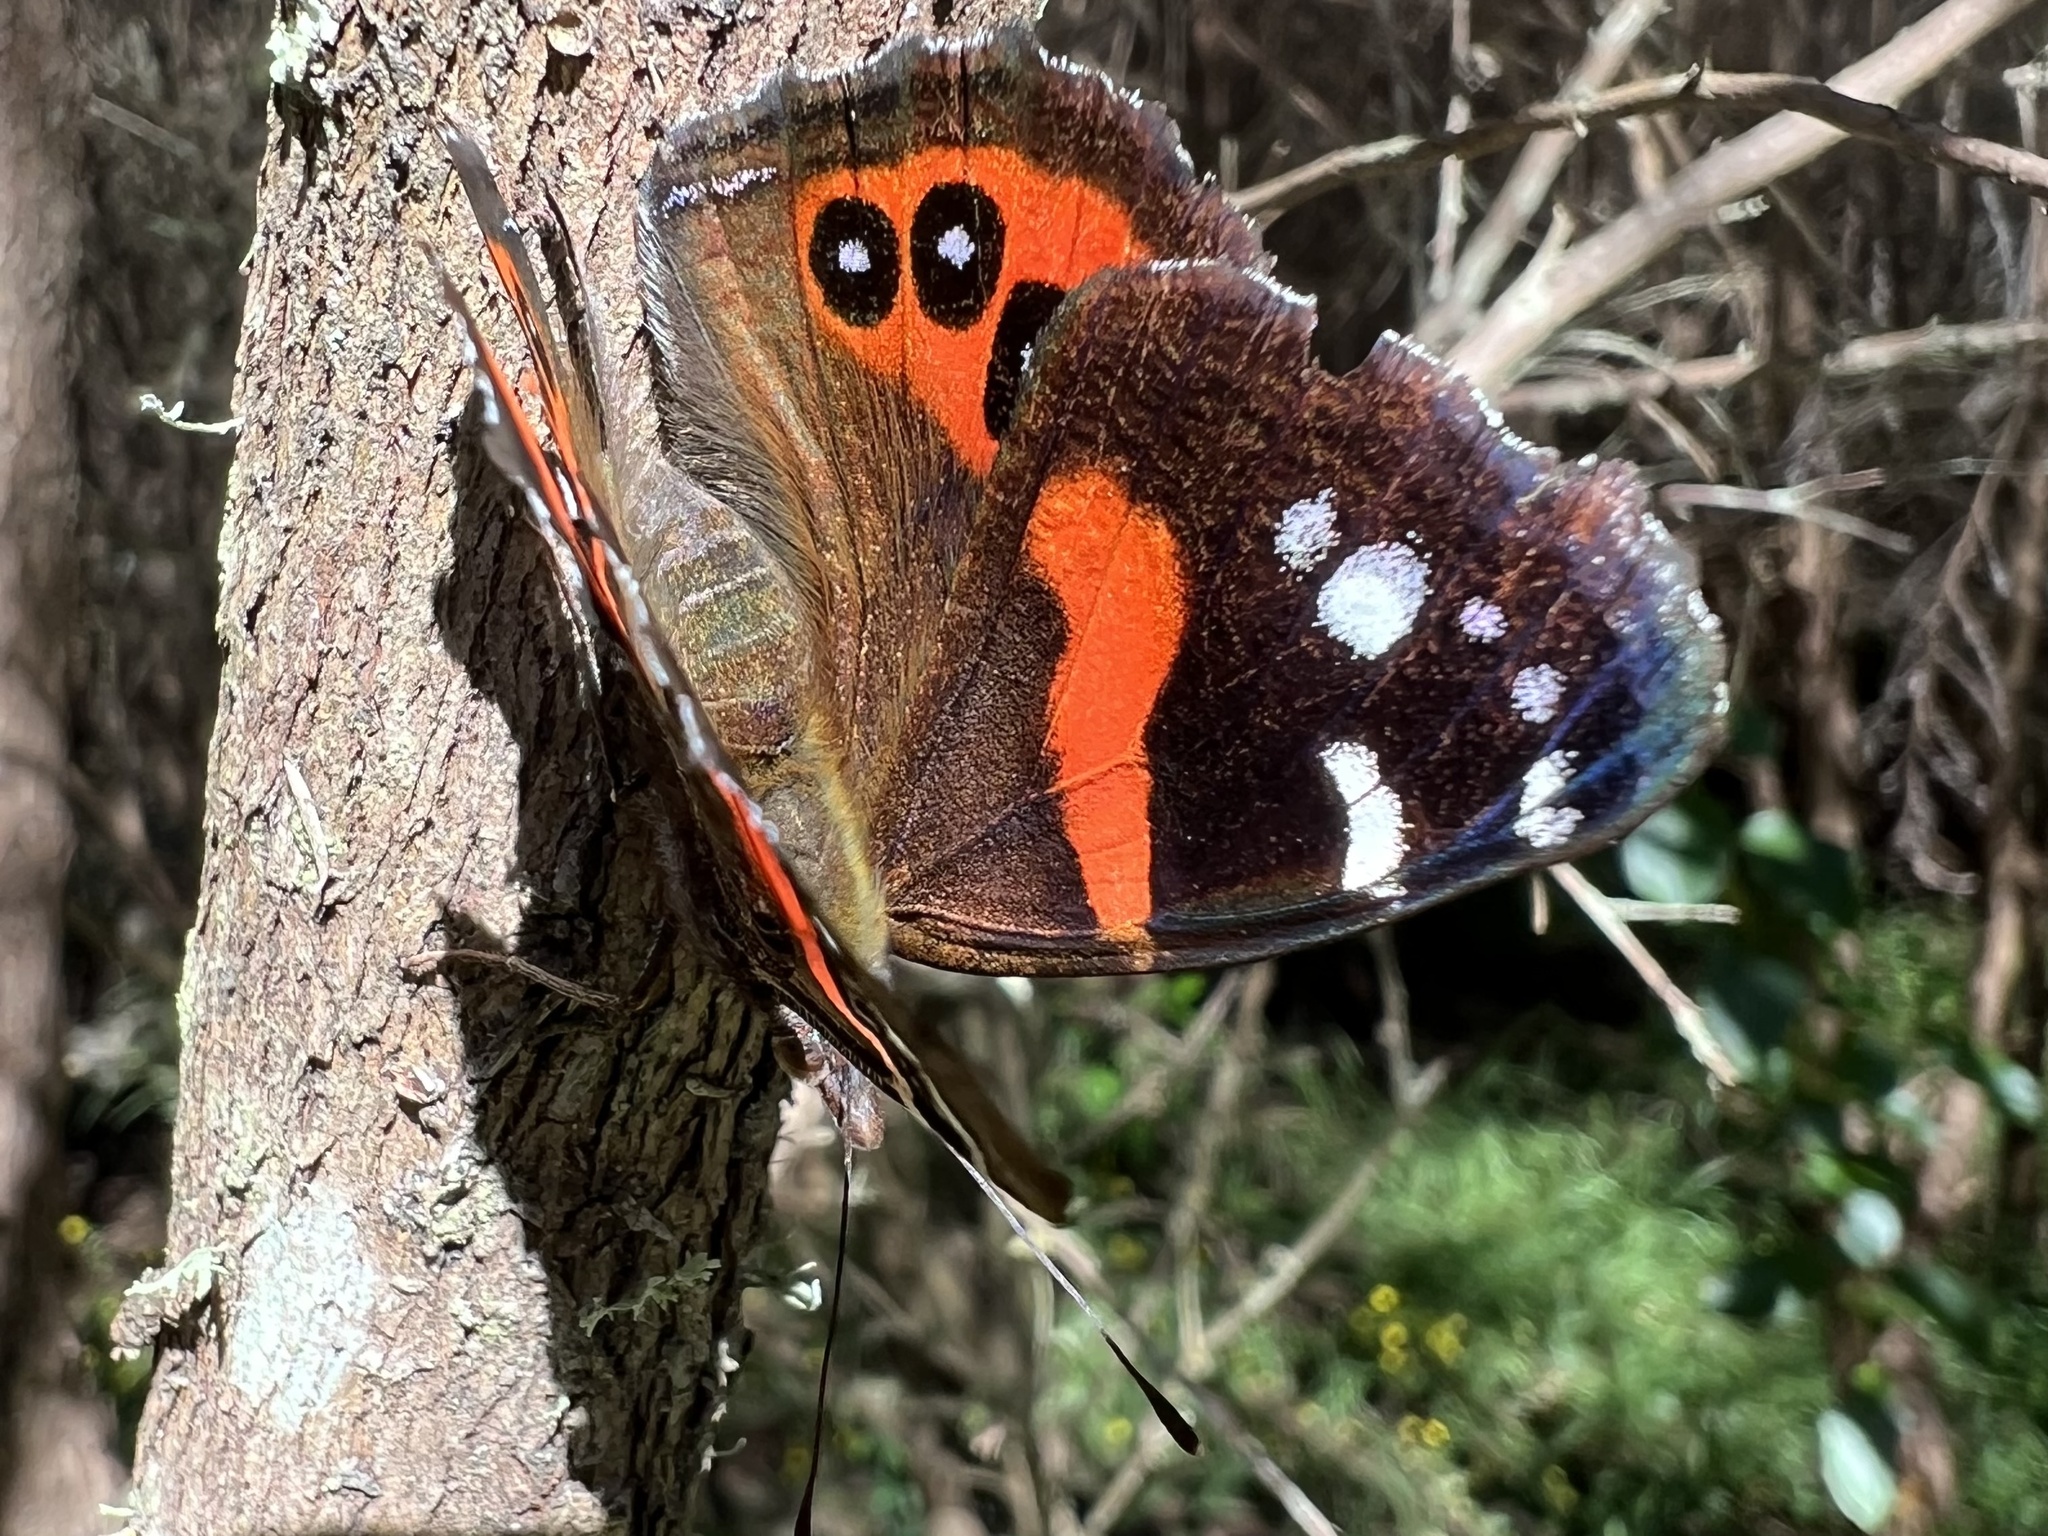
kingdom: Animalia
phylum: Arthropoda
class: Insecta
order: Lepidoptera
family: Nymphalidae
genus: Vanessa
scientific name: Vanessa gonerilla
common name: New zealand red admiral
